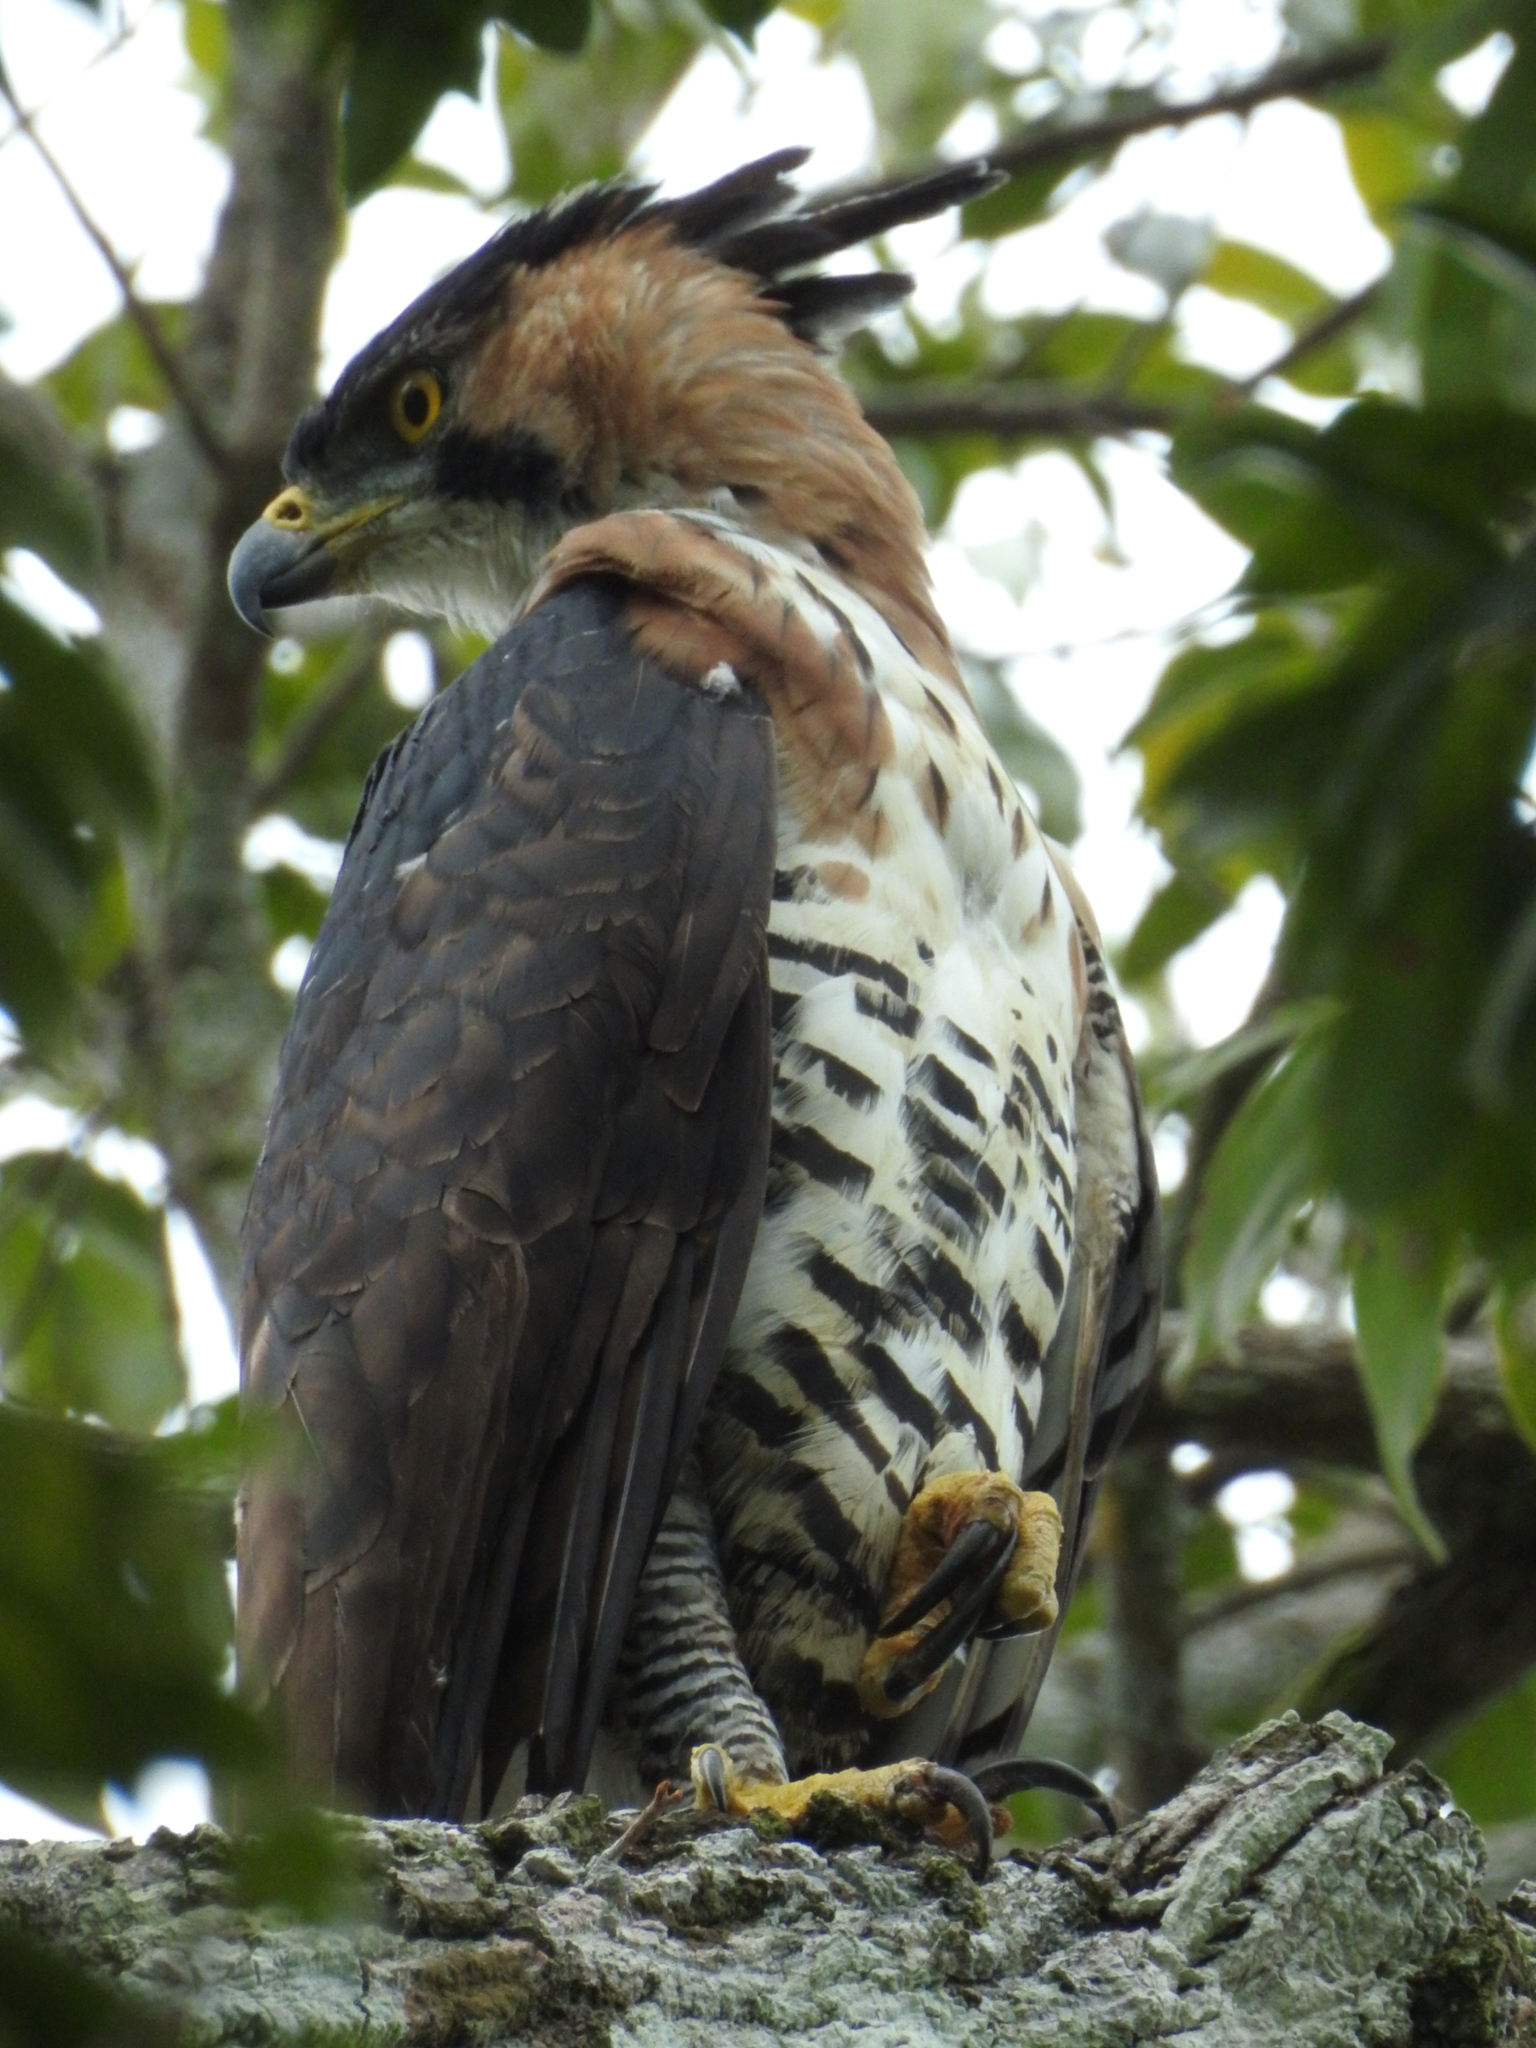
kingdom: Animalia
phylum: Chordata
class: Aves
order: Accipitriformes
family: Accipitridae
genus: Spizaetus
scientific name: Spizaetus ornatus
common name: Ornate hawk-eagle
